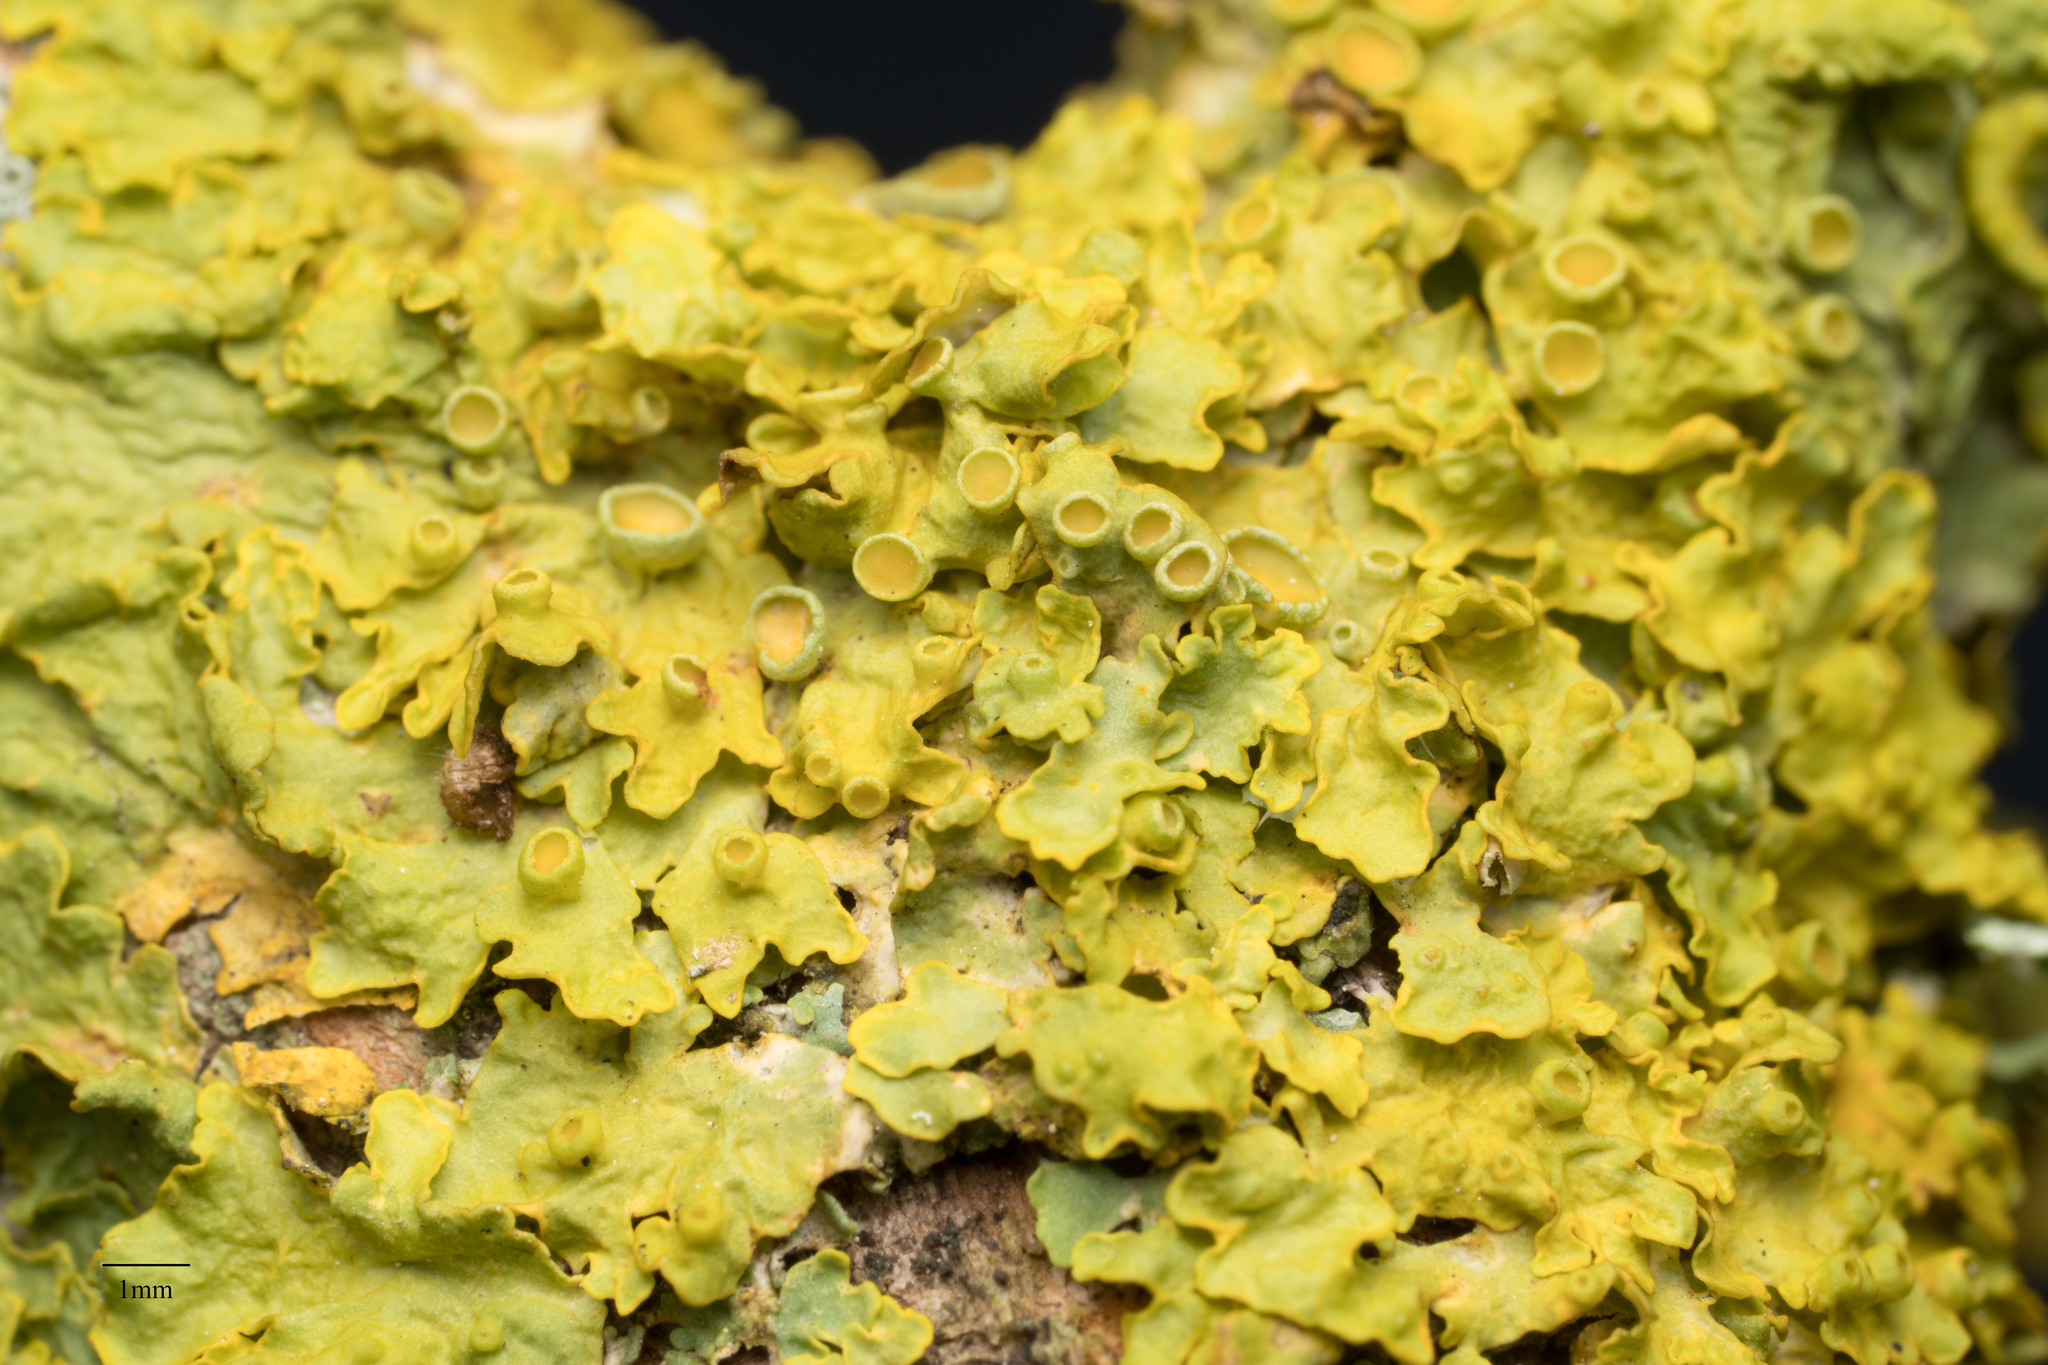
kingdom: Fungi
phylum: Ascomycota
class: Lecanoromycetes
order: Teloschistales
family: Teloschistaceae
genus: Xanthoria
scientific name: Xanthoria parietina
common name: Common orange lichen
